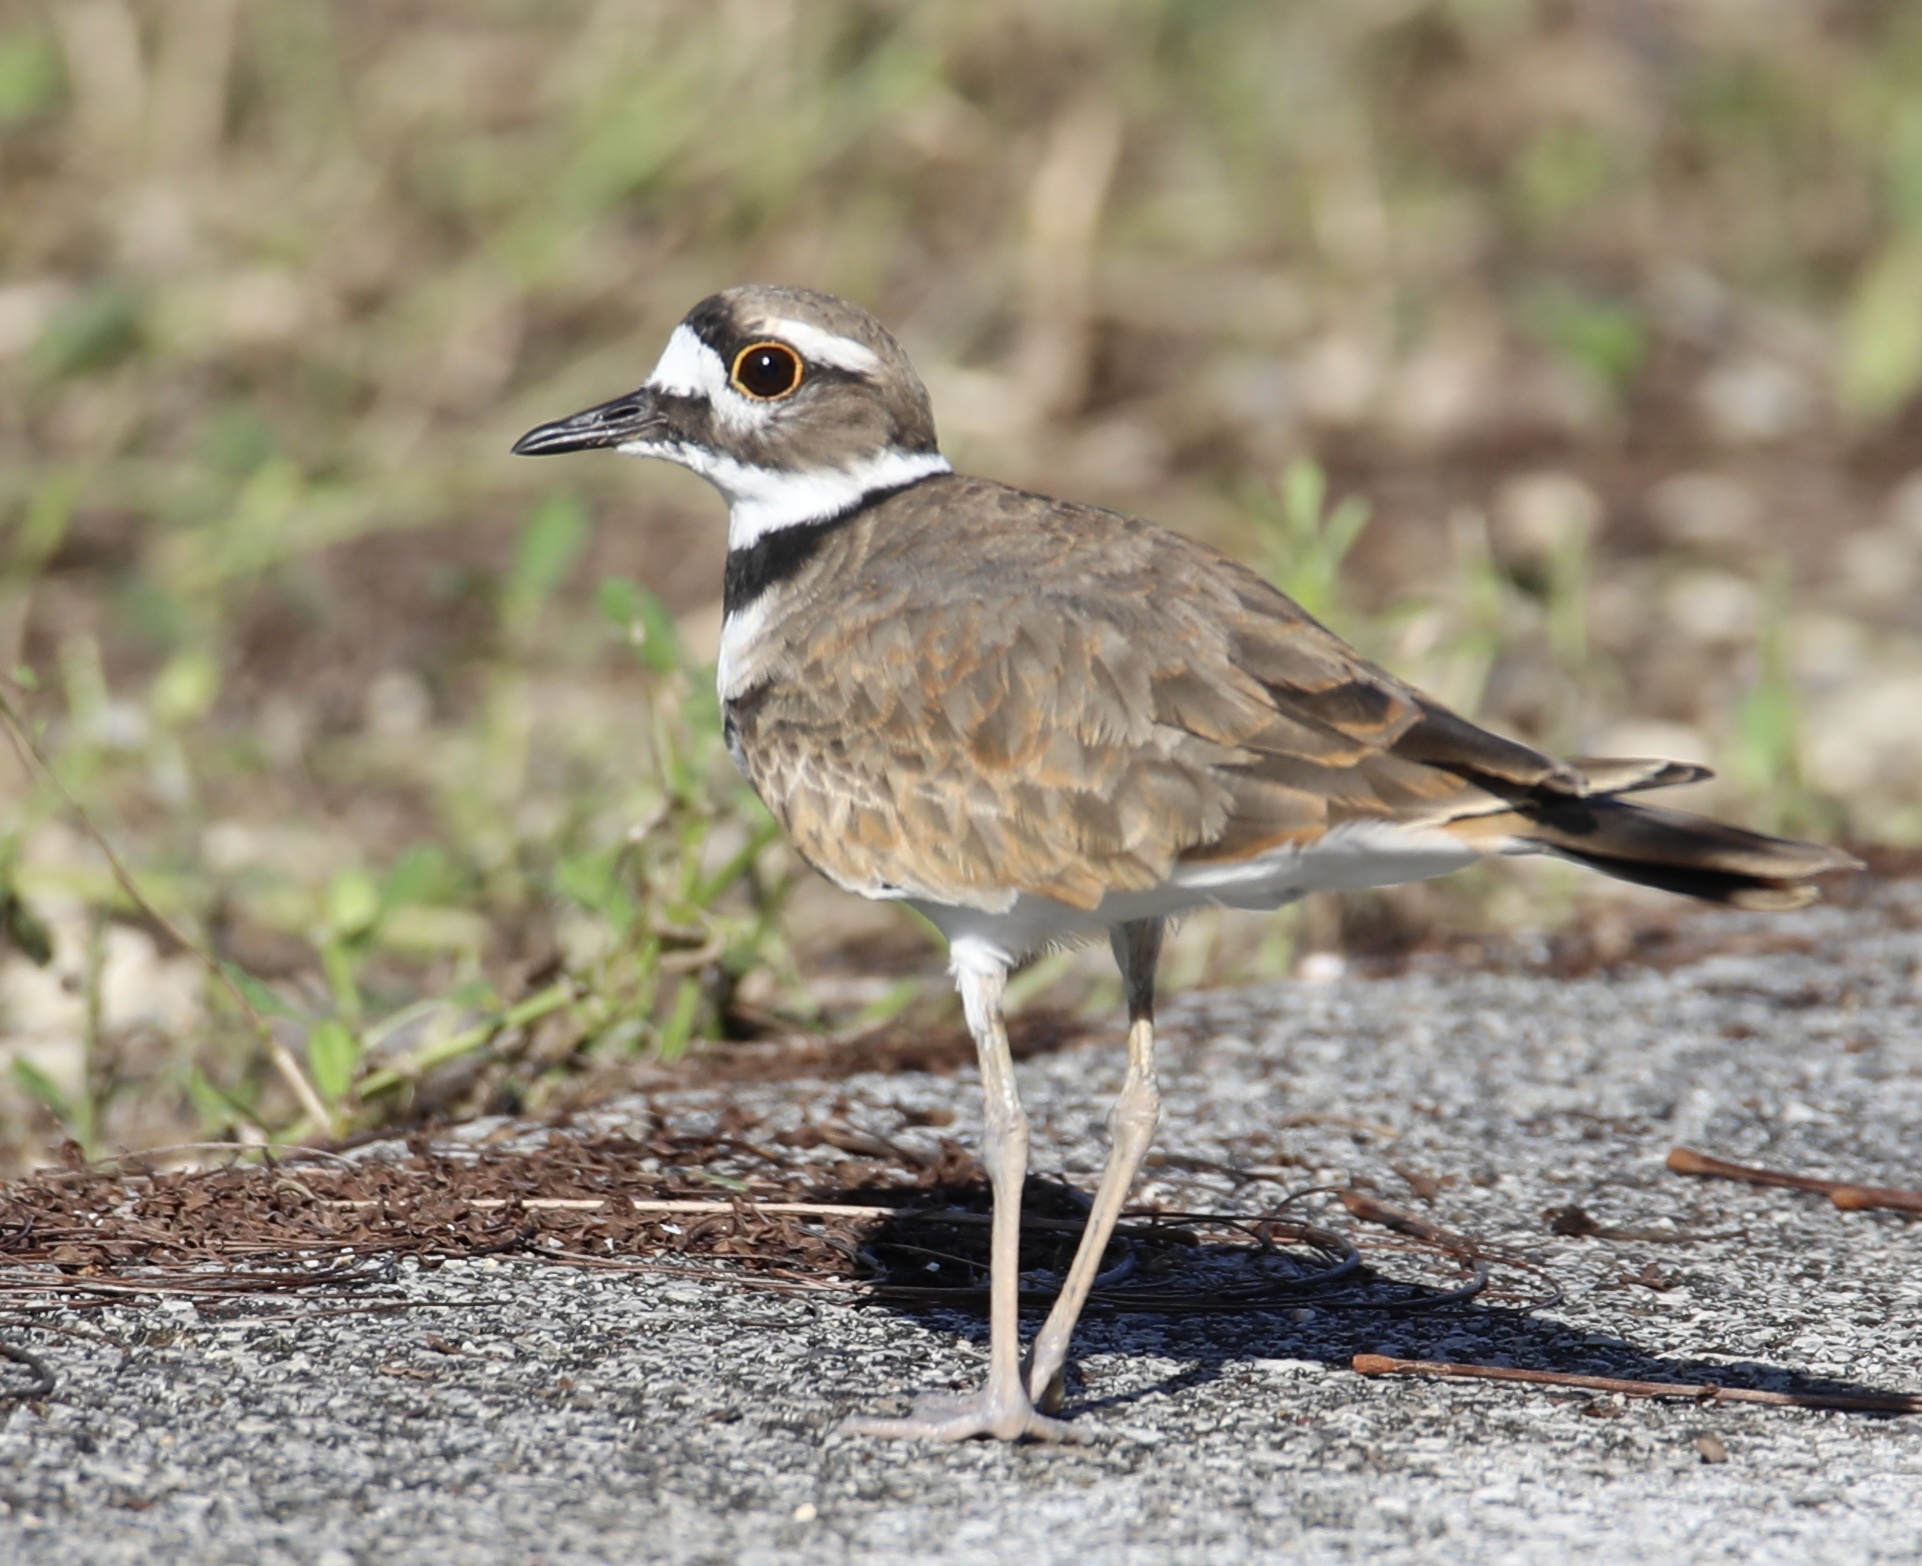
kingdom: Animalia
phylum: Chordata
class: Aves
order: Charadriiformes
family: Charadriidae
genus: Charadrius
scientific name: Charadrius vociferus
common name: Killdeer
